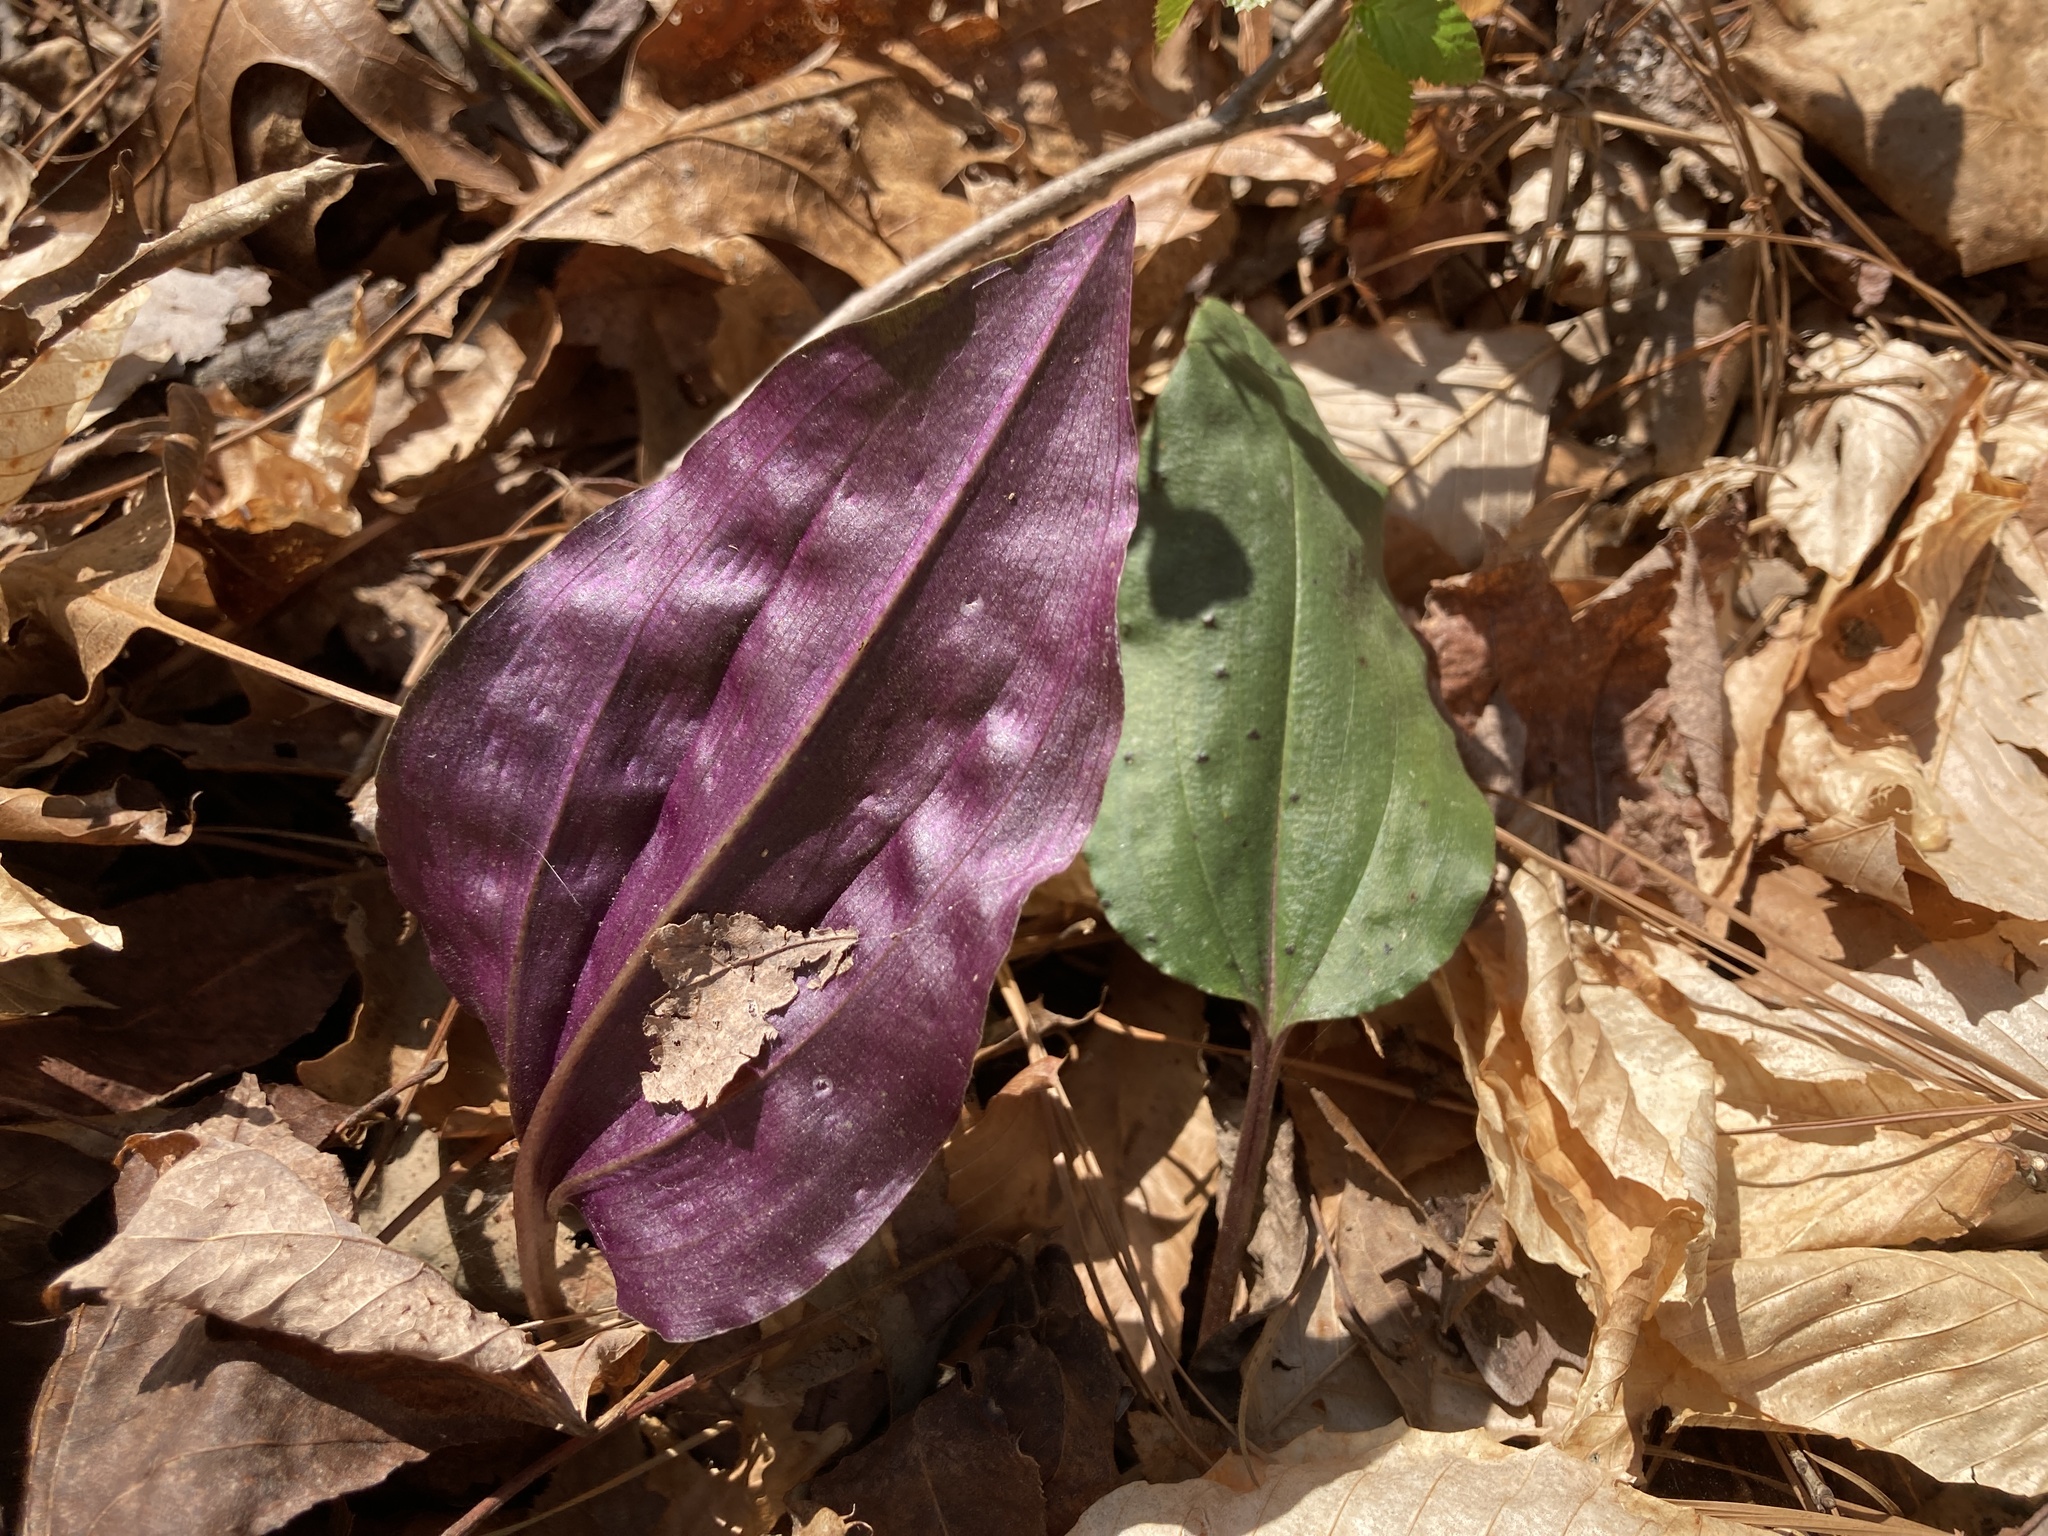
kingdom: Plantae
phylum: Tracheophyta
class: Liliopsida
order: Asparagales
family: Orchidaceae
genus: Tipularia
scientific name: Tipularia discolor
